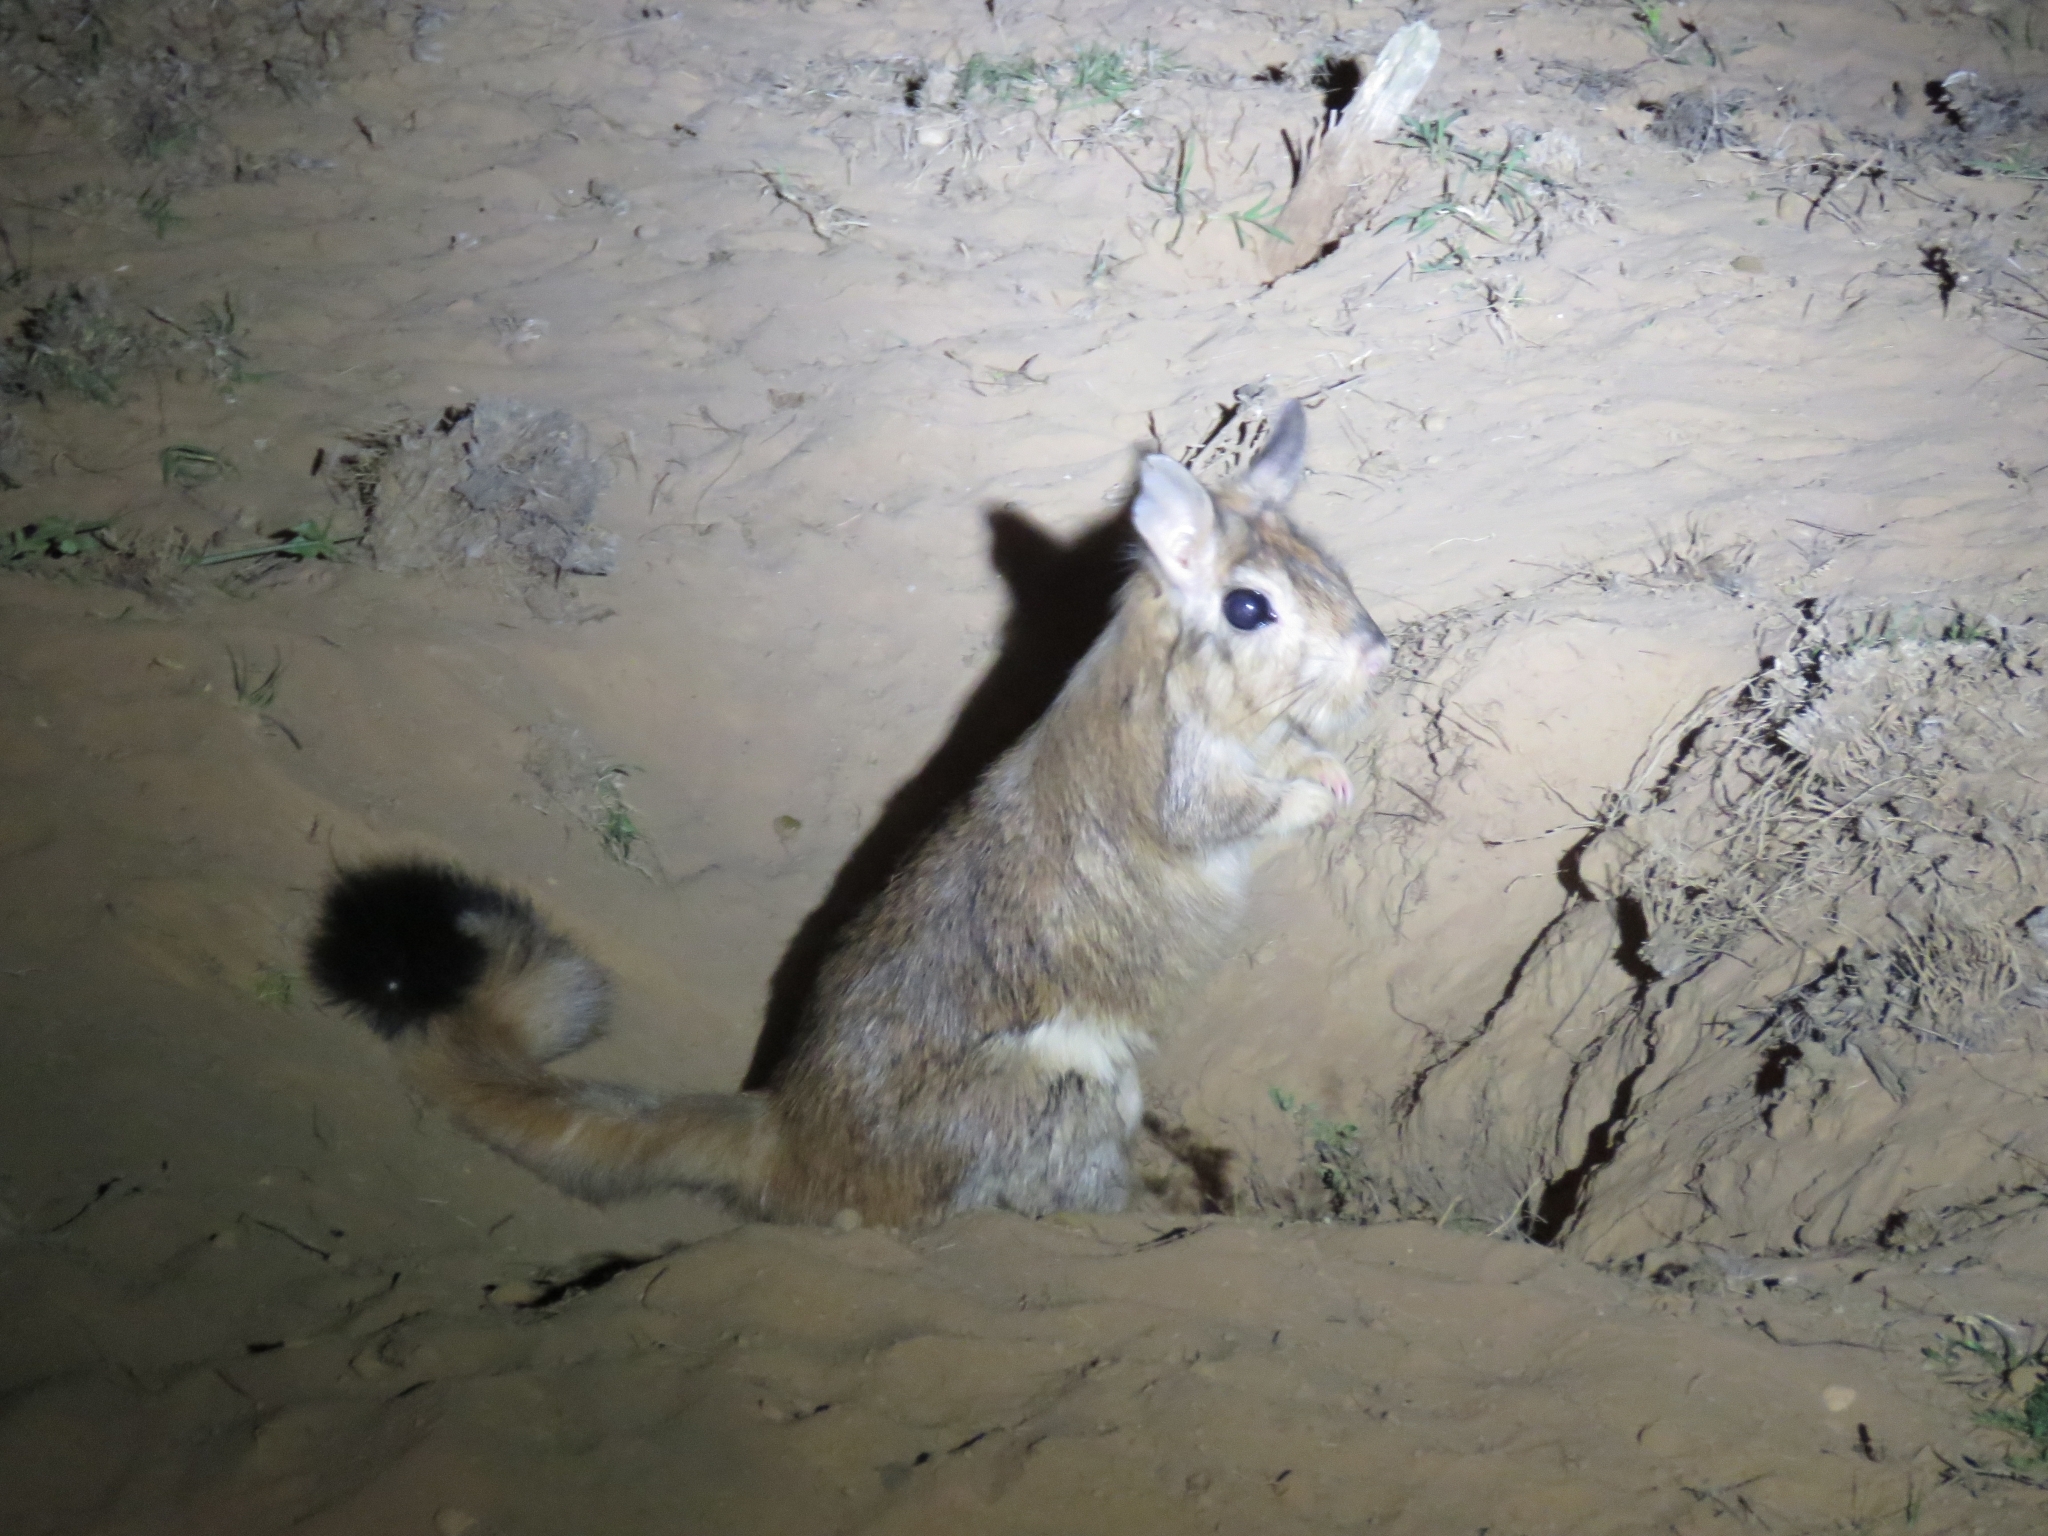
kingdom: Animalia
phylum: Chordata
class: Mammalia
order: Rodentia
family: Pedetidae
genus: Pedetes
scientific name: Pedetes capensis
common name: South african spring hare
